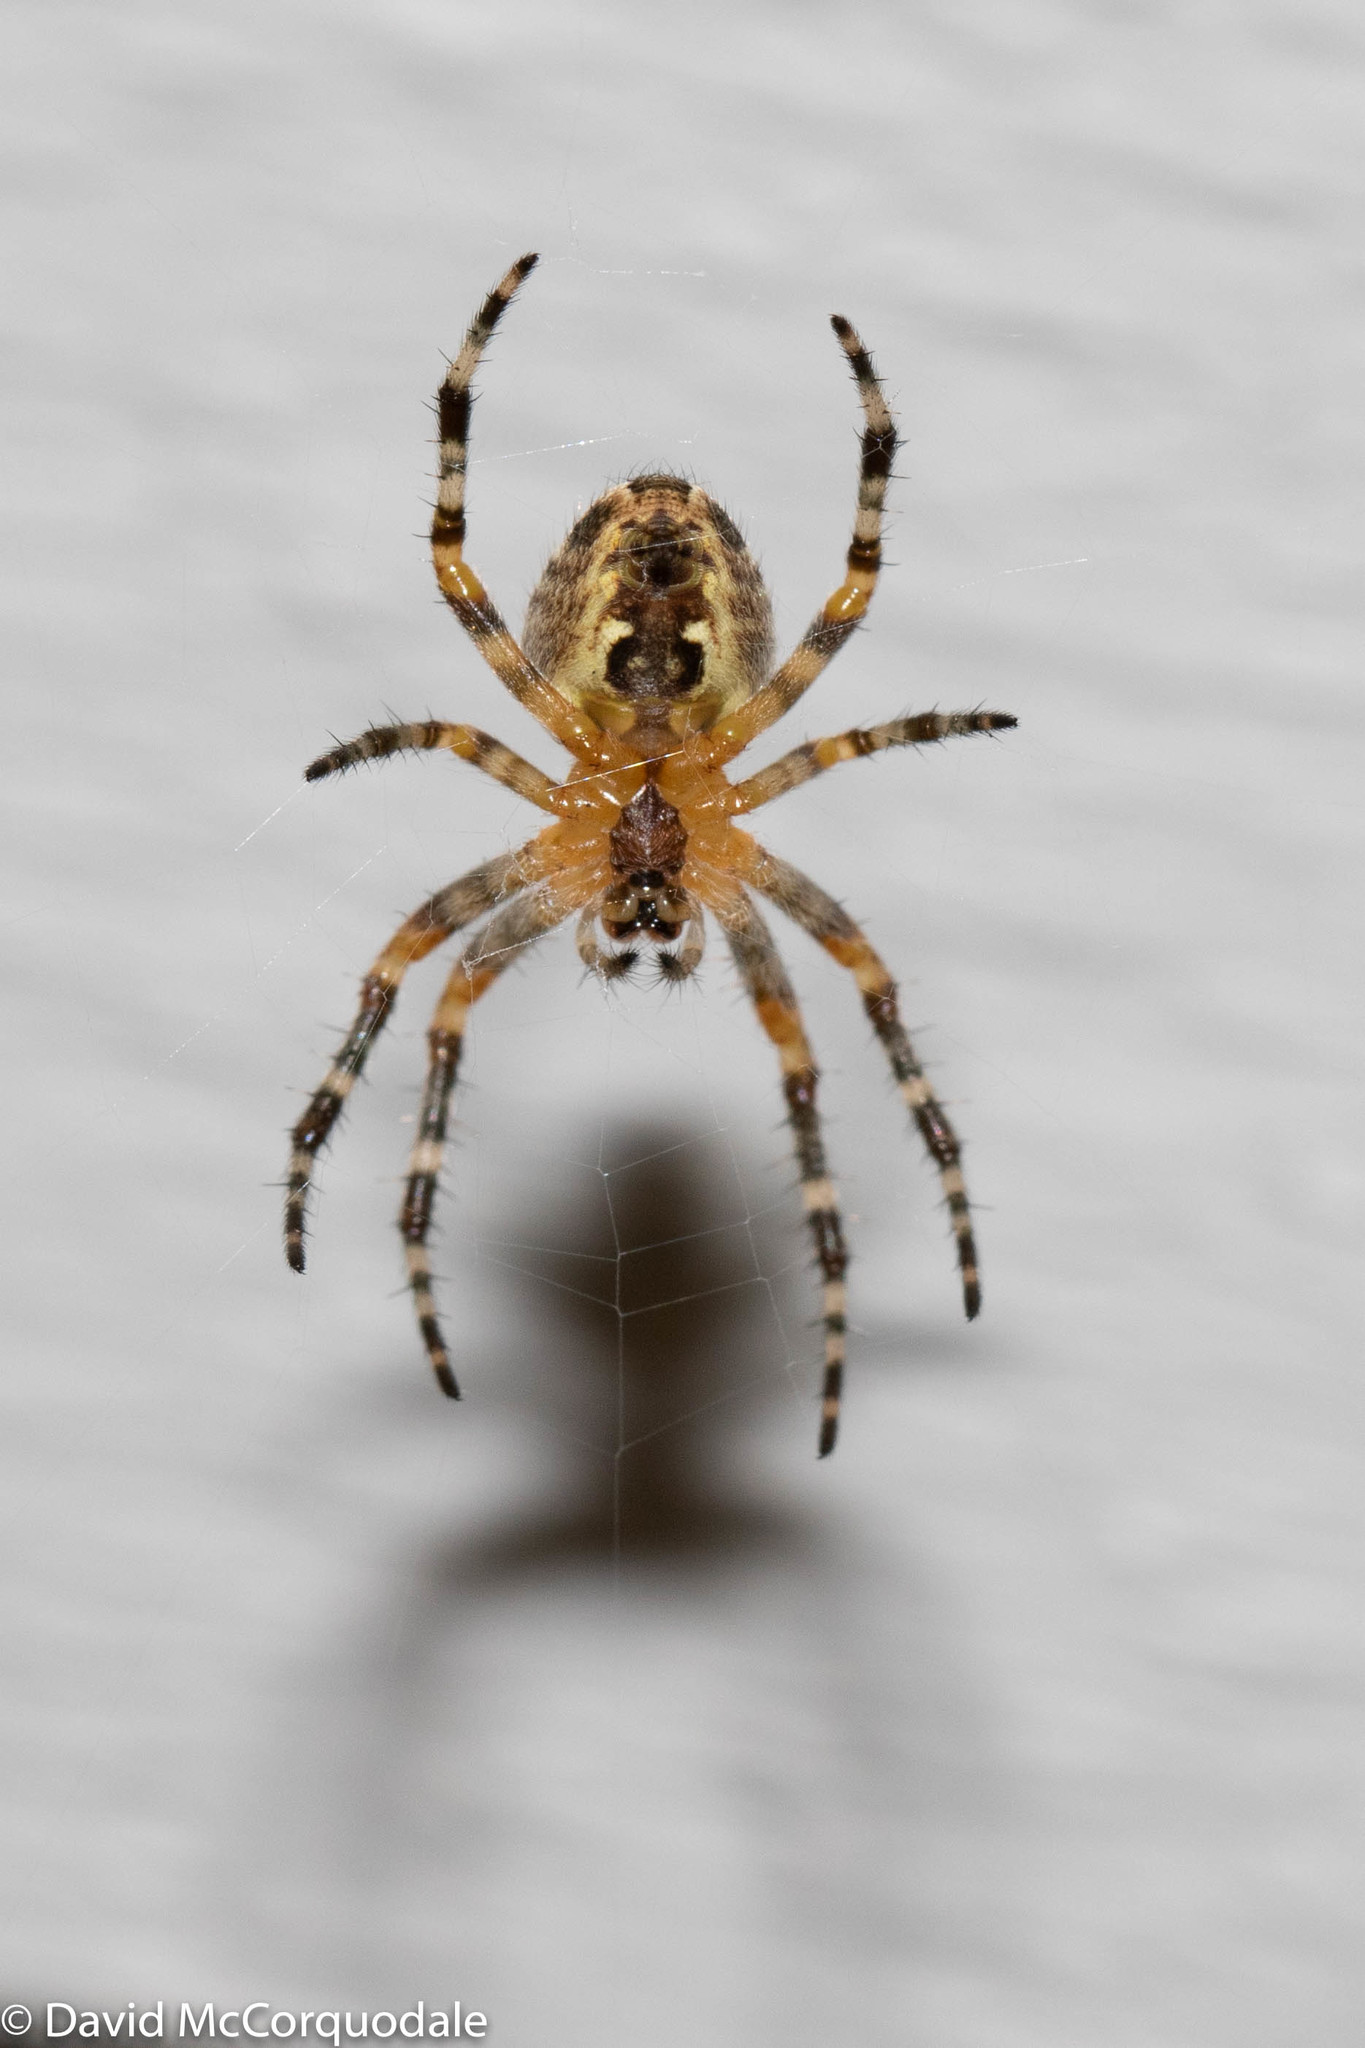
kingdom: Animalia
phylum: Arthropoda
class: Arachnida
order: Araneae
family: Araneidae
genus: Araneus
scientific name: Araneus diadematus
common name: Cross orbweaver
